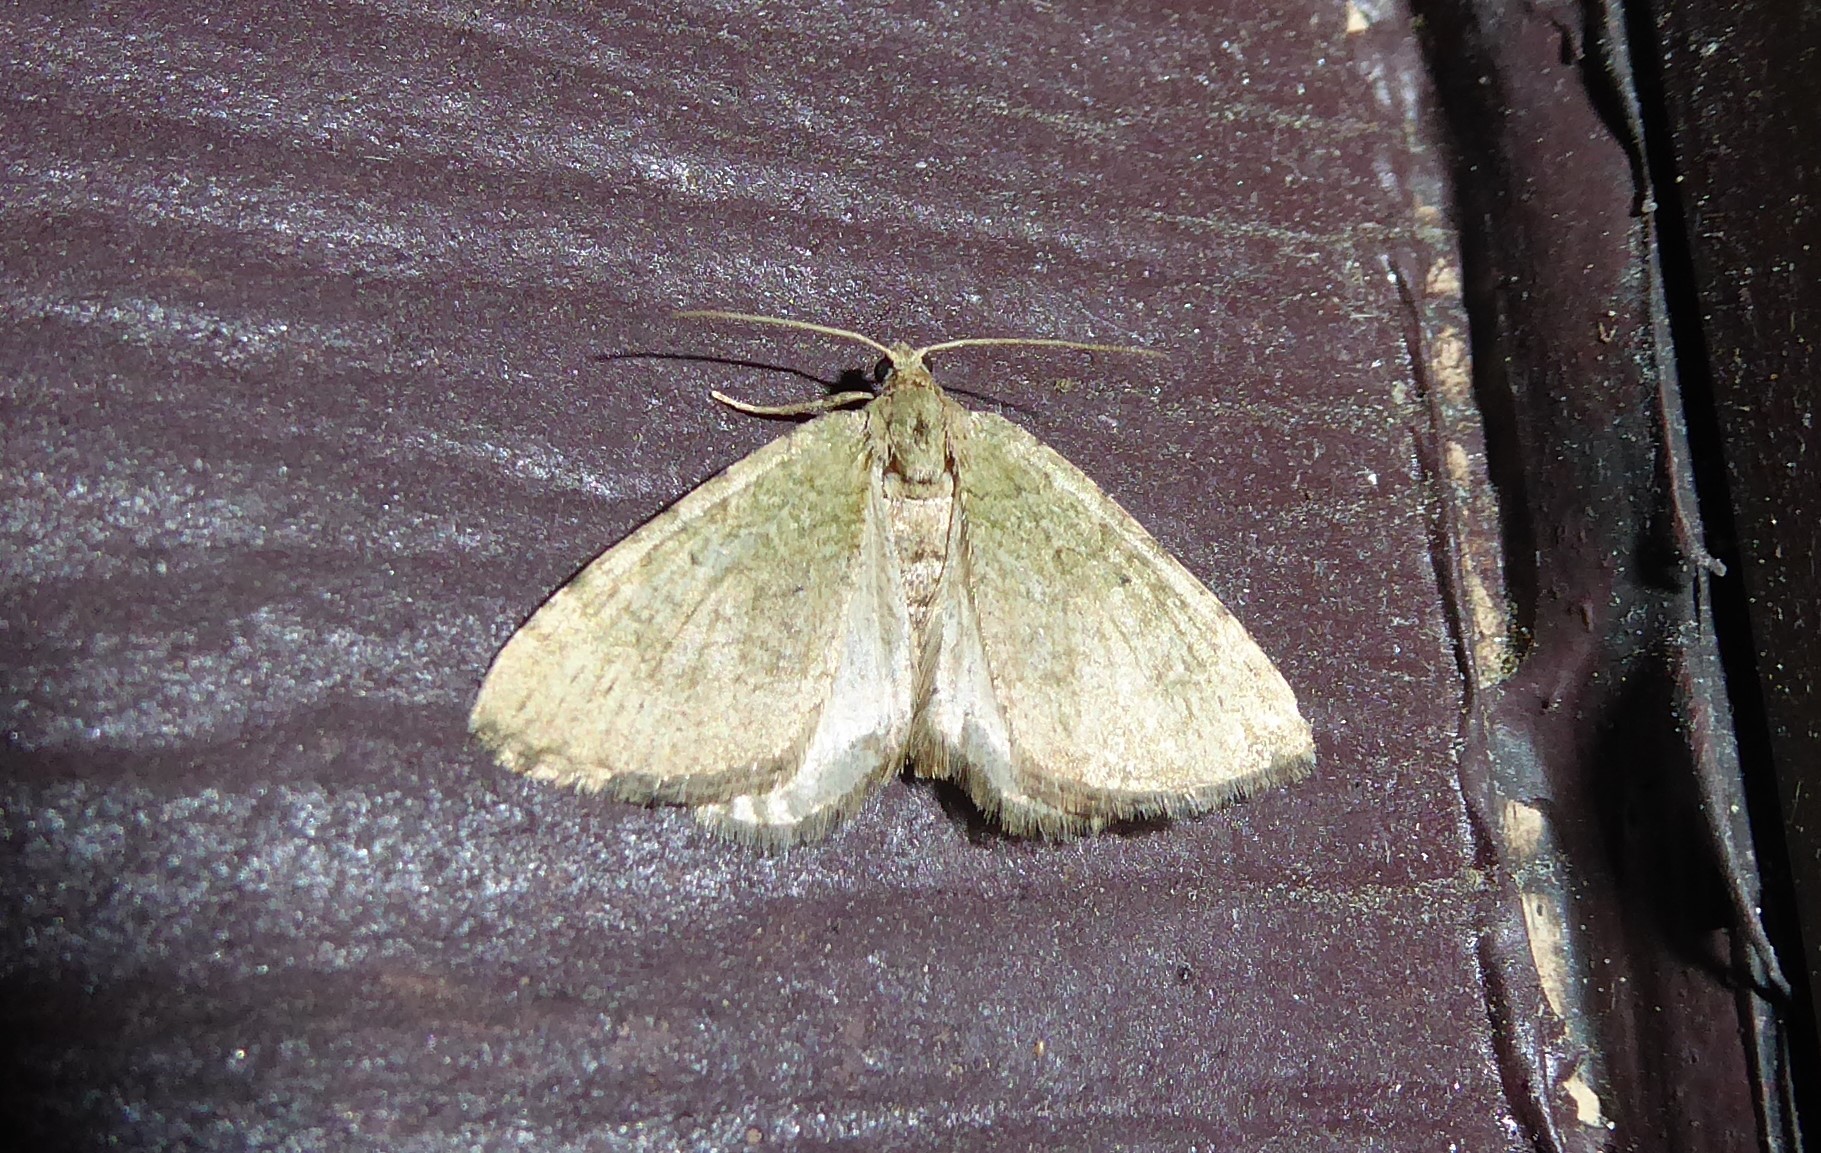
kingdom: Animalia
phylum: Arthropoda
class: Insecta
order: Lepidoptera
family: Geometridae
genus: Epyaxa
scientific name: Epyaxa rosearia
